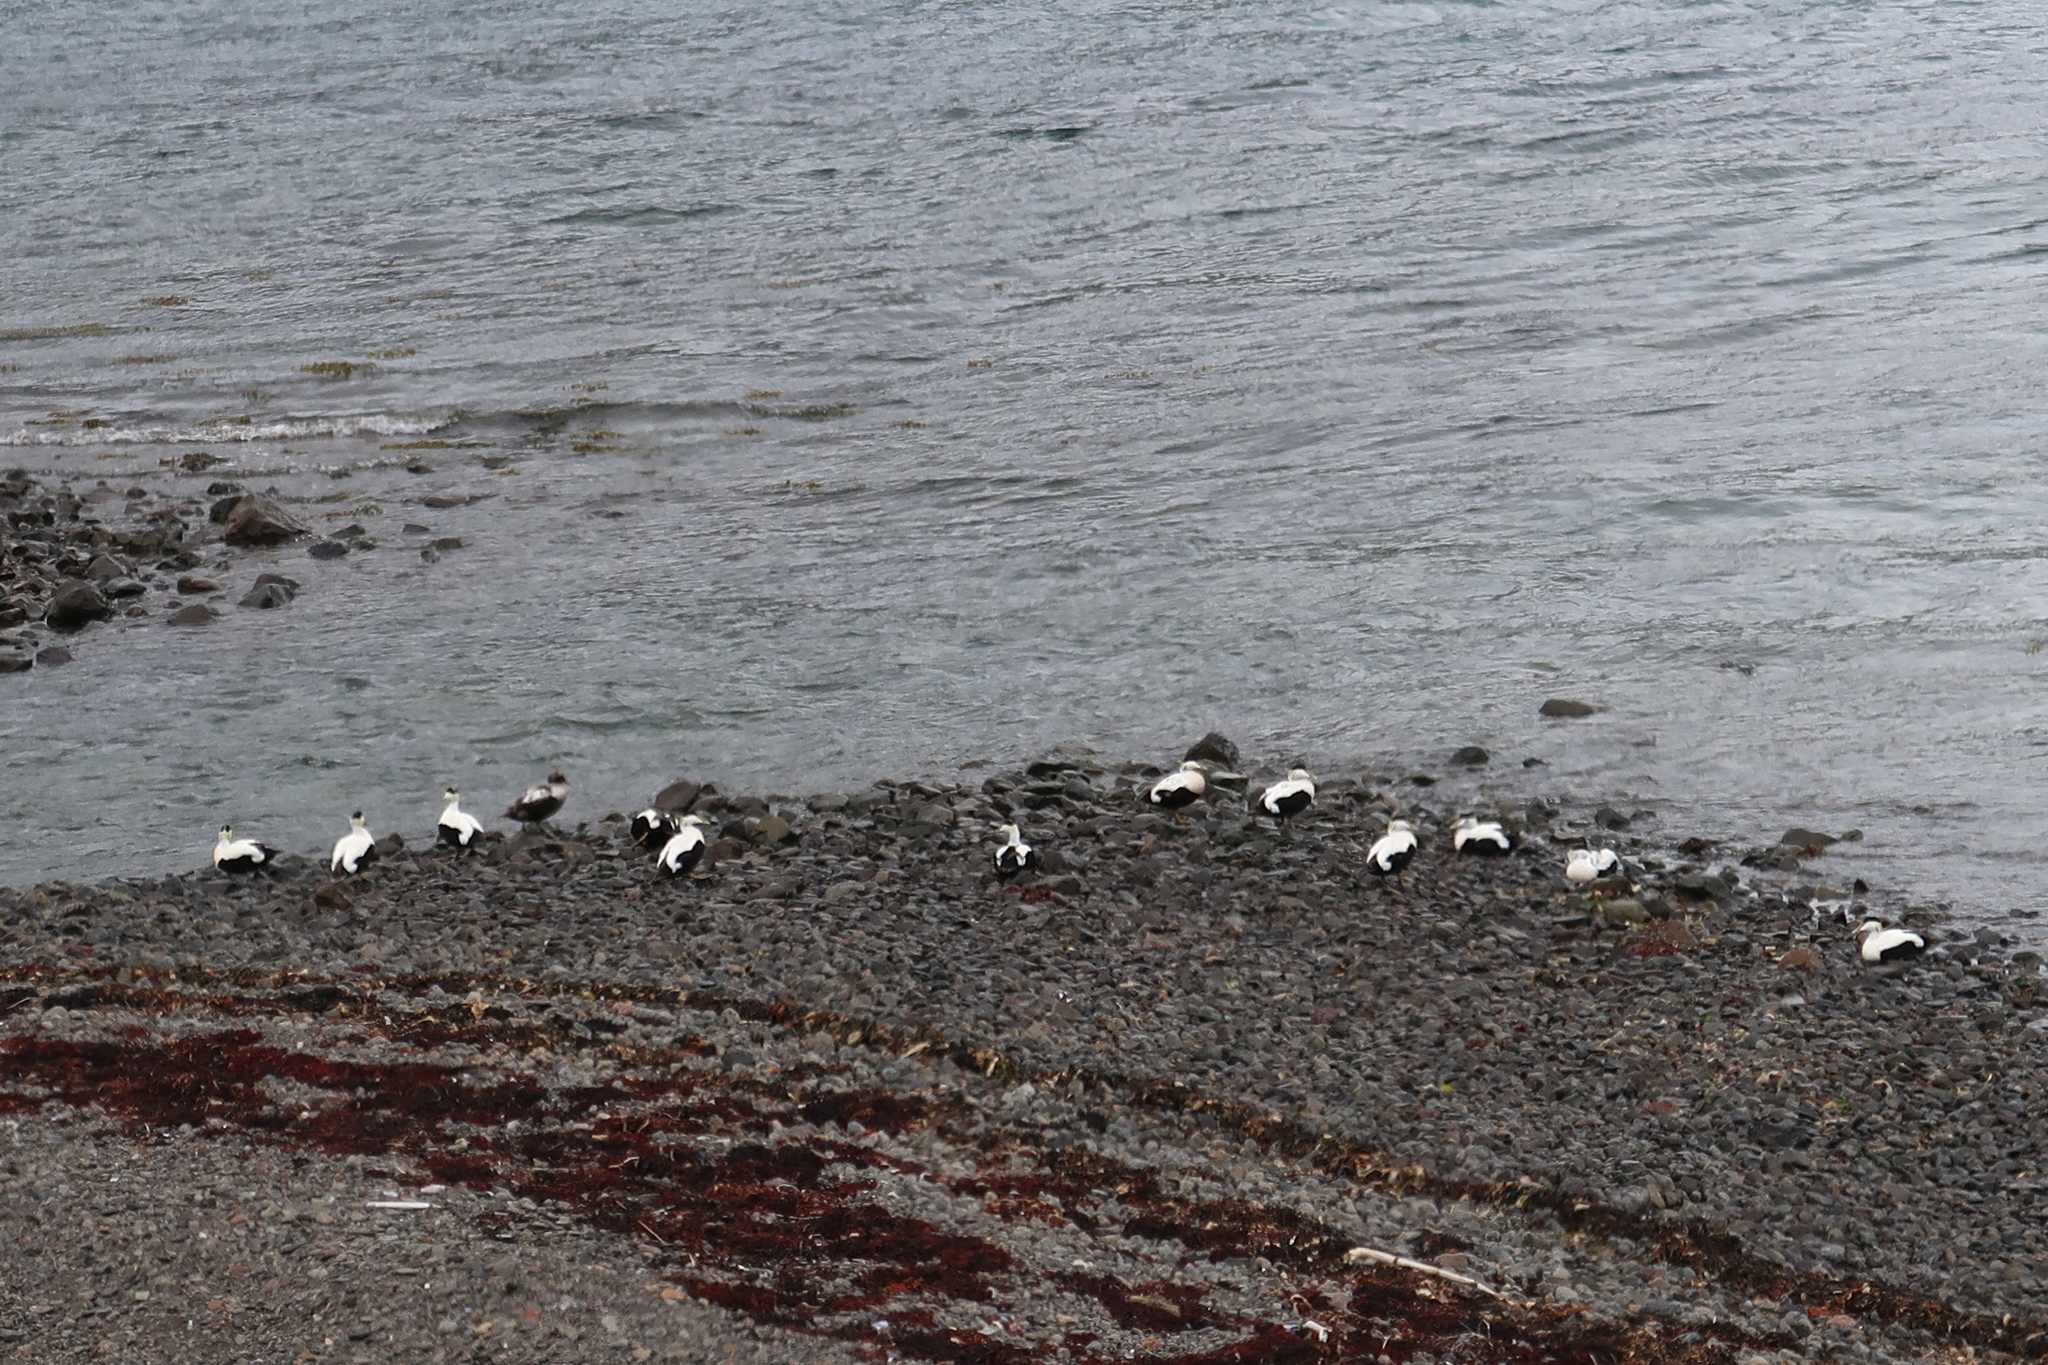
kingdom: Animalia
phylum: Chordata
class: Aves
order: Anseriformes
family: Anatidae
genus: Somateria
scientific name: Somateria mollissima
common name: Common eider
